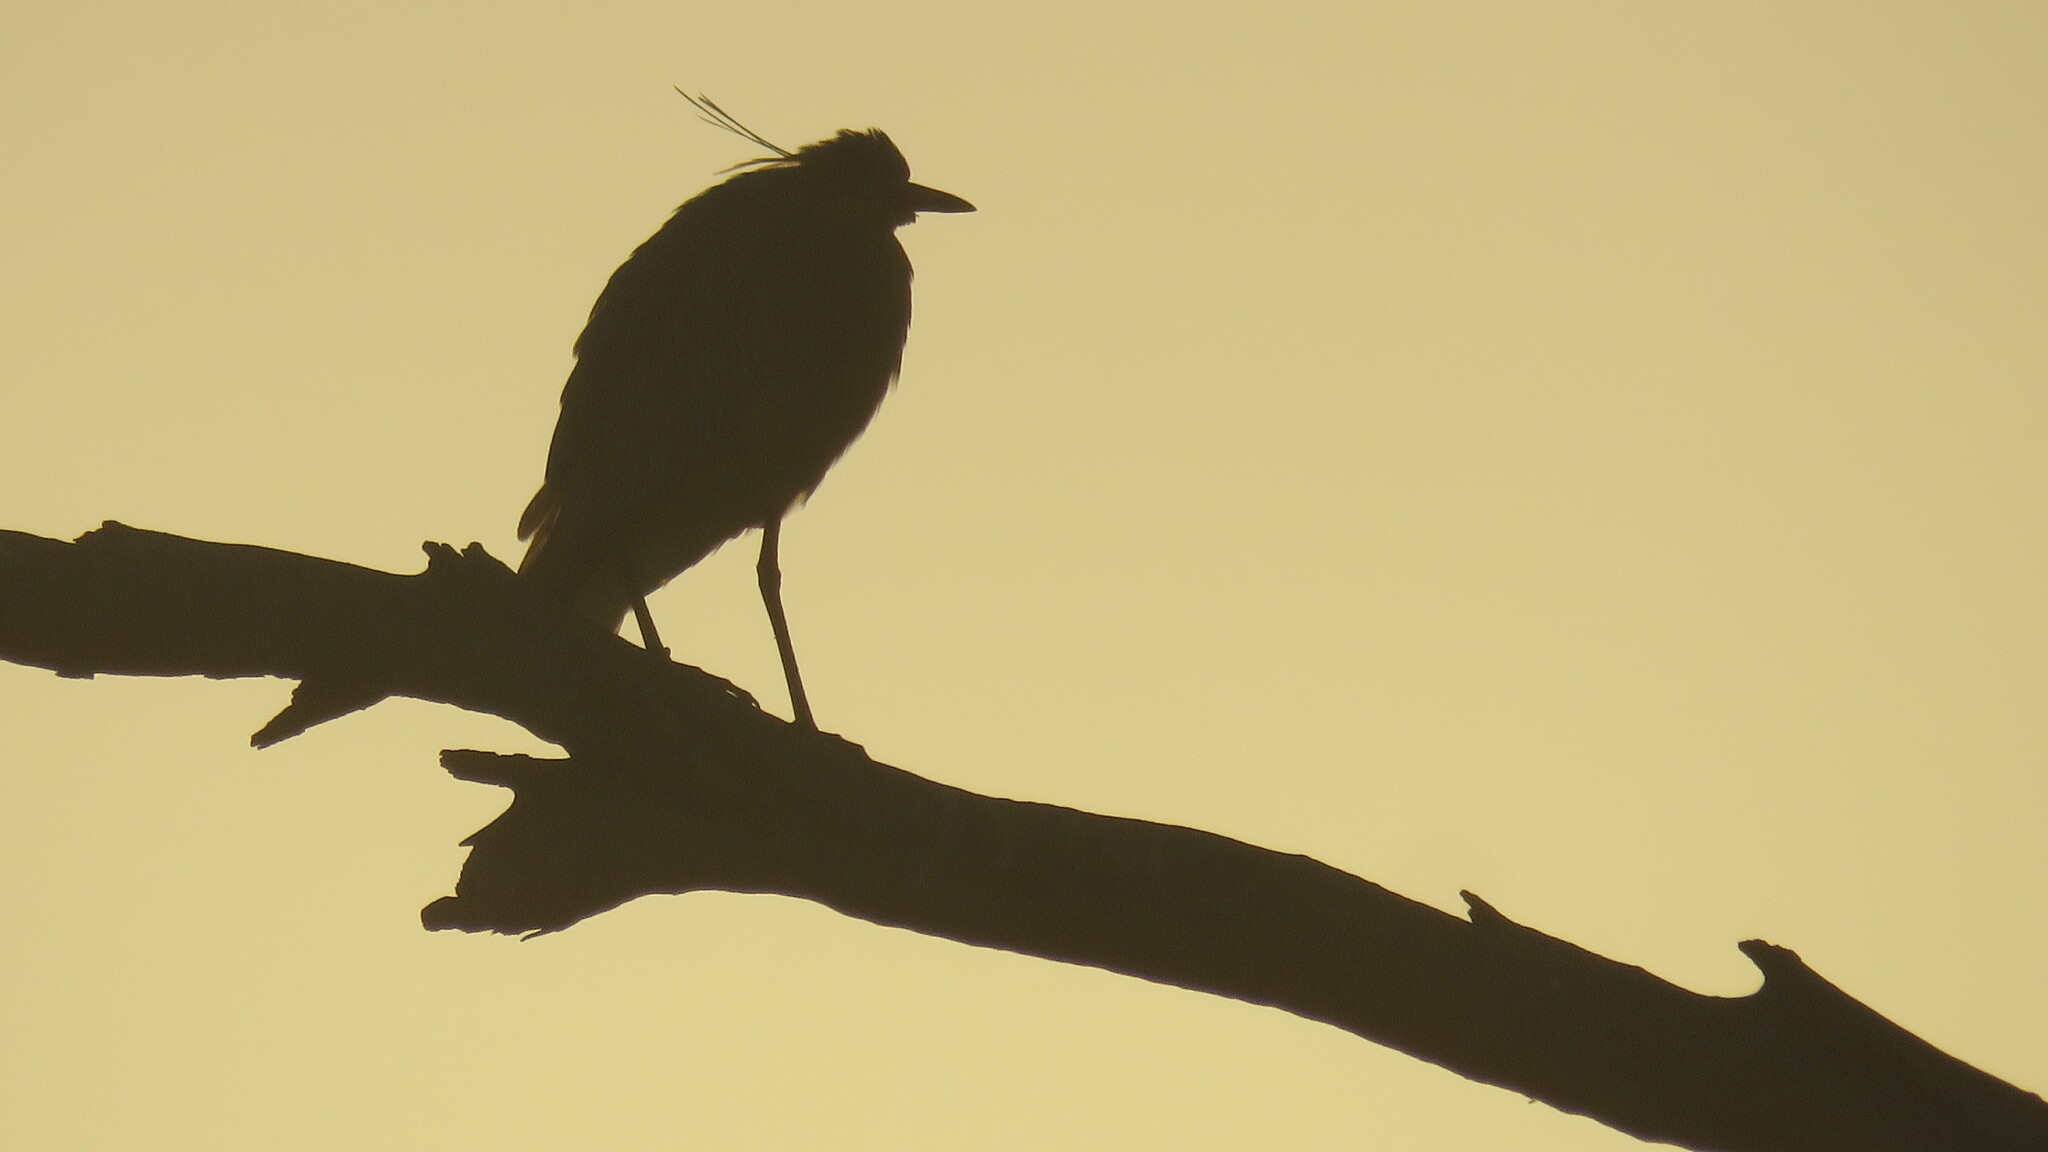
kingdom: Animalia
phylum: Chordata
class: Aves
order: Pelecaniformes
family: Ardeidae
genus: Syrigma
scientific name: Syrigma sibilatrix
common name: Whistling heron
